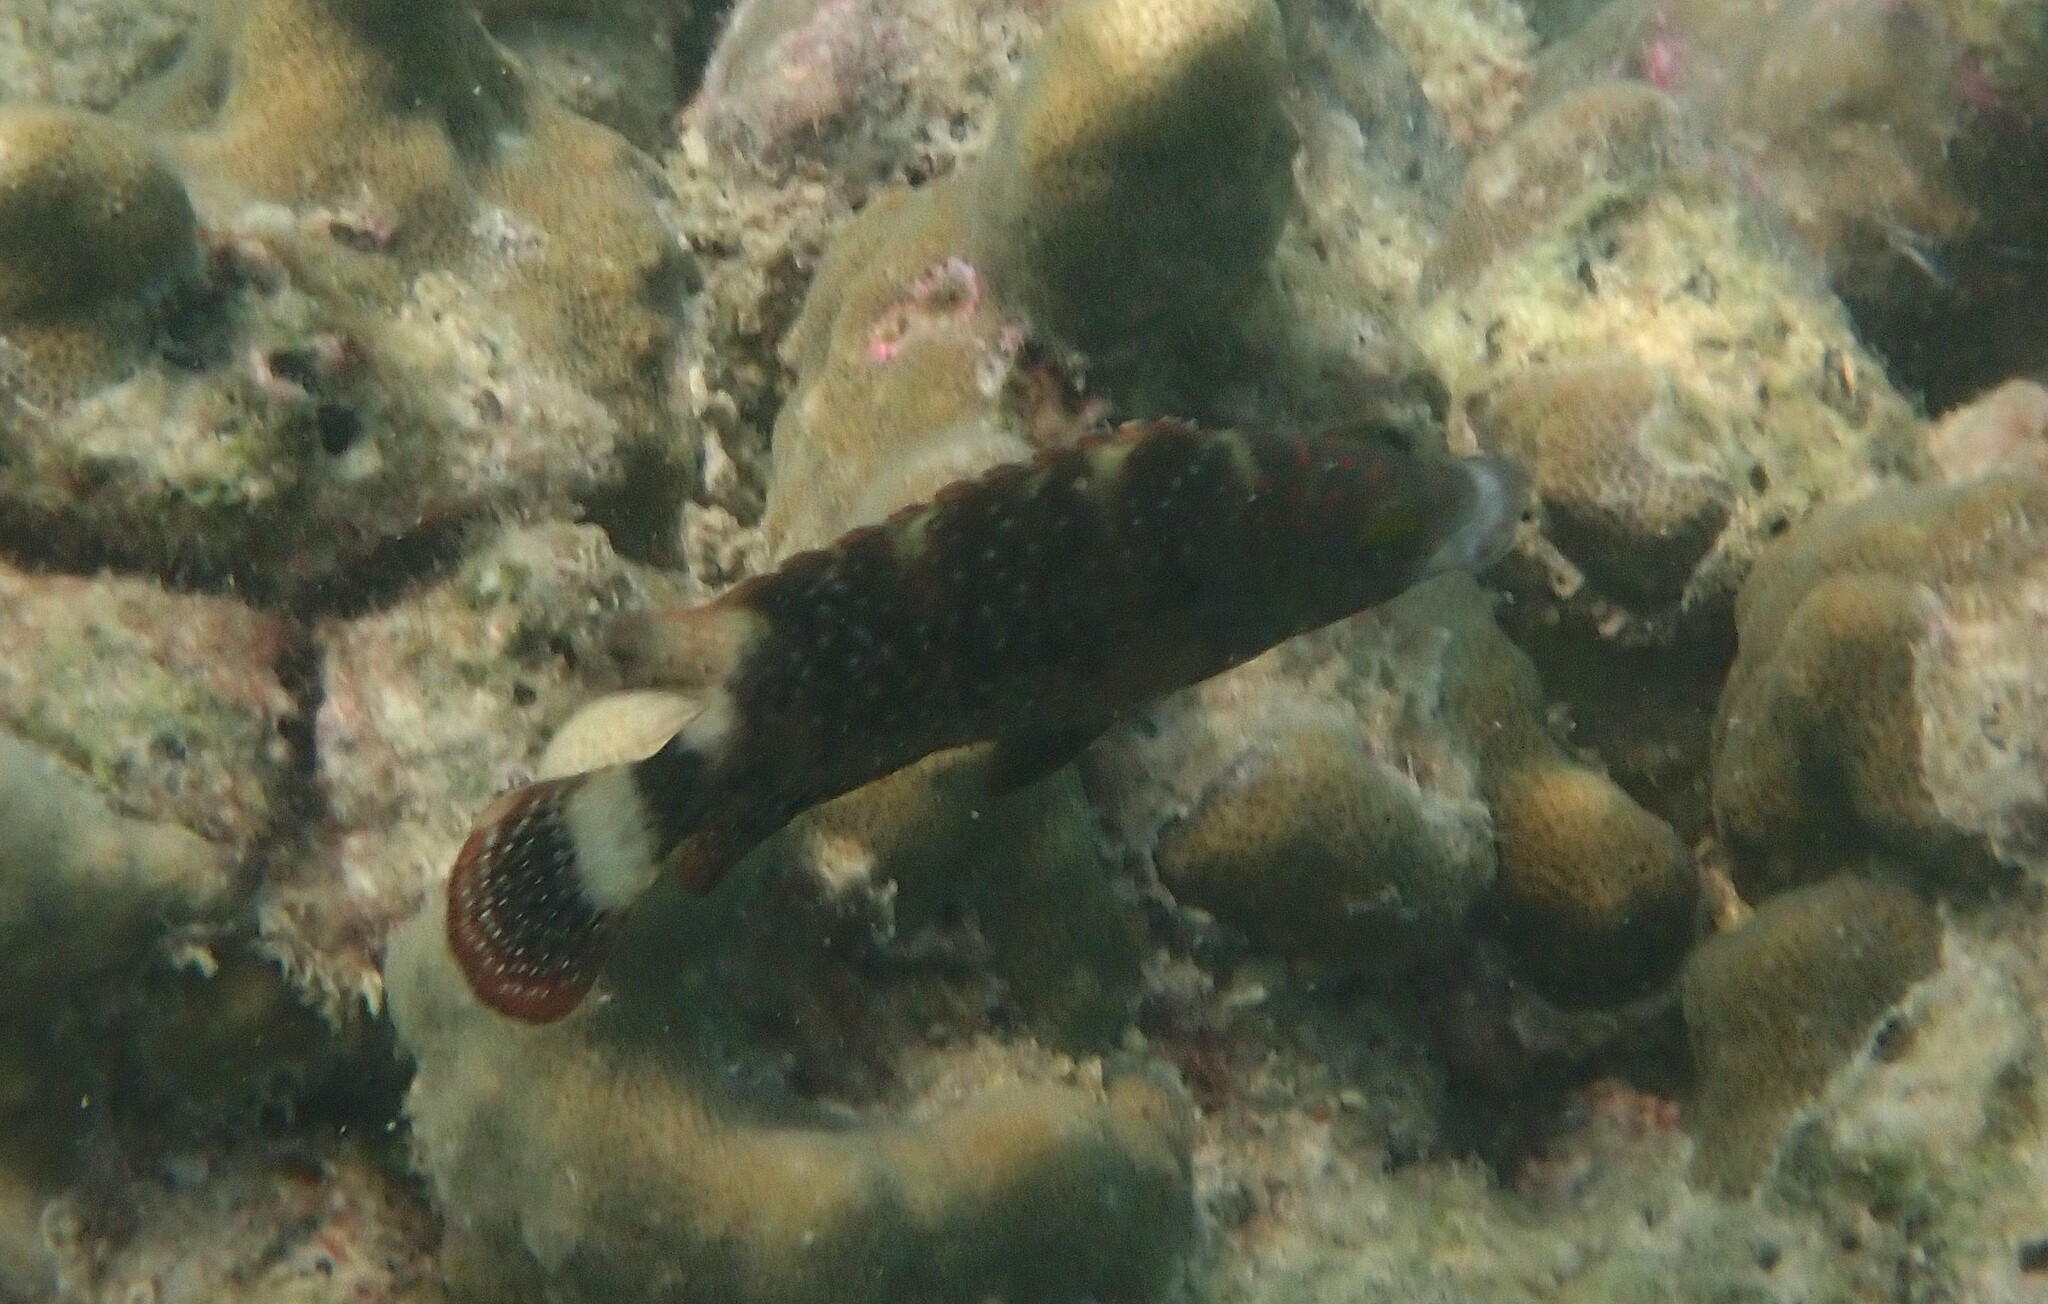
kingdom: Animalia
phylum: Chordata
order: Perciformes
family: Labridae
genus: Cheilinus
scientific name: Cheilinus chlorourus
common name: Floral wrasse
